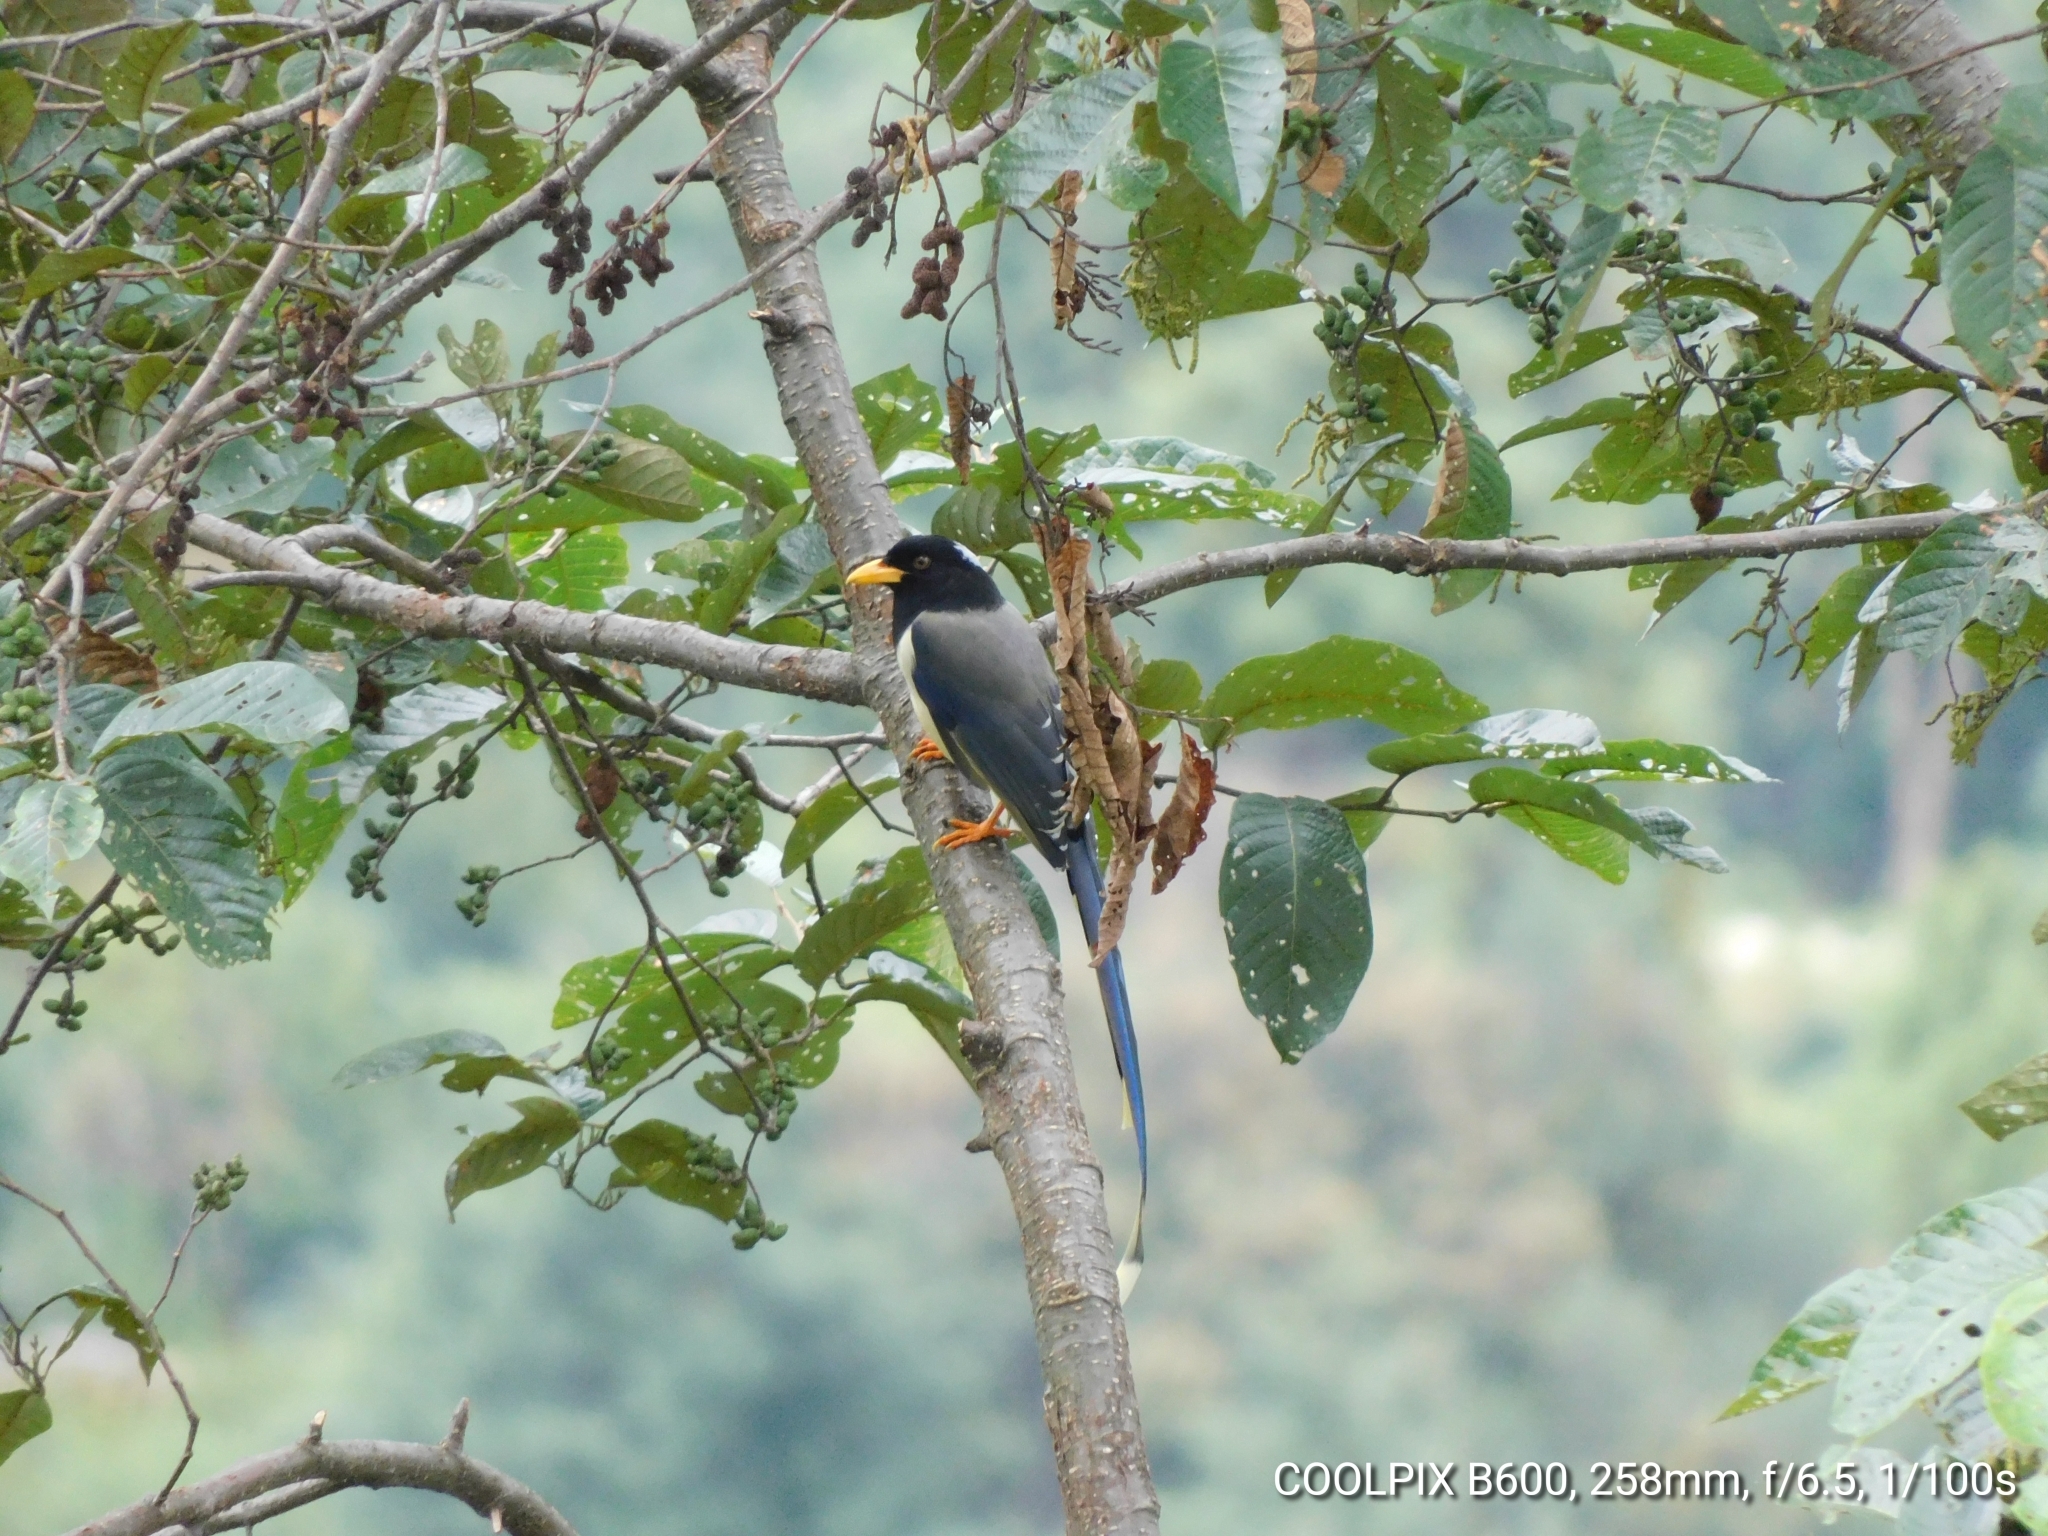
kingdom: Animalia
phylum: Chordata
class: Aves
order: Passeriformes
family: Corvidae
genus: Urocissa
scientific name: Urocissa flavirostris
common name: Yellow-billed blue magpie
